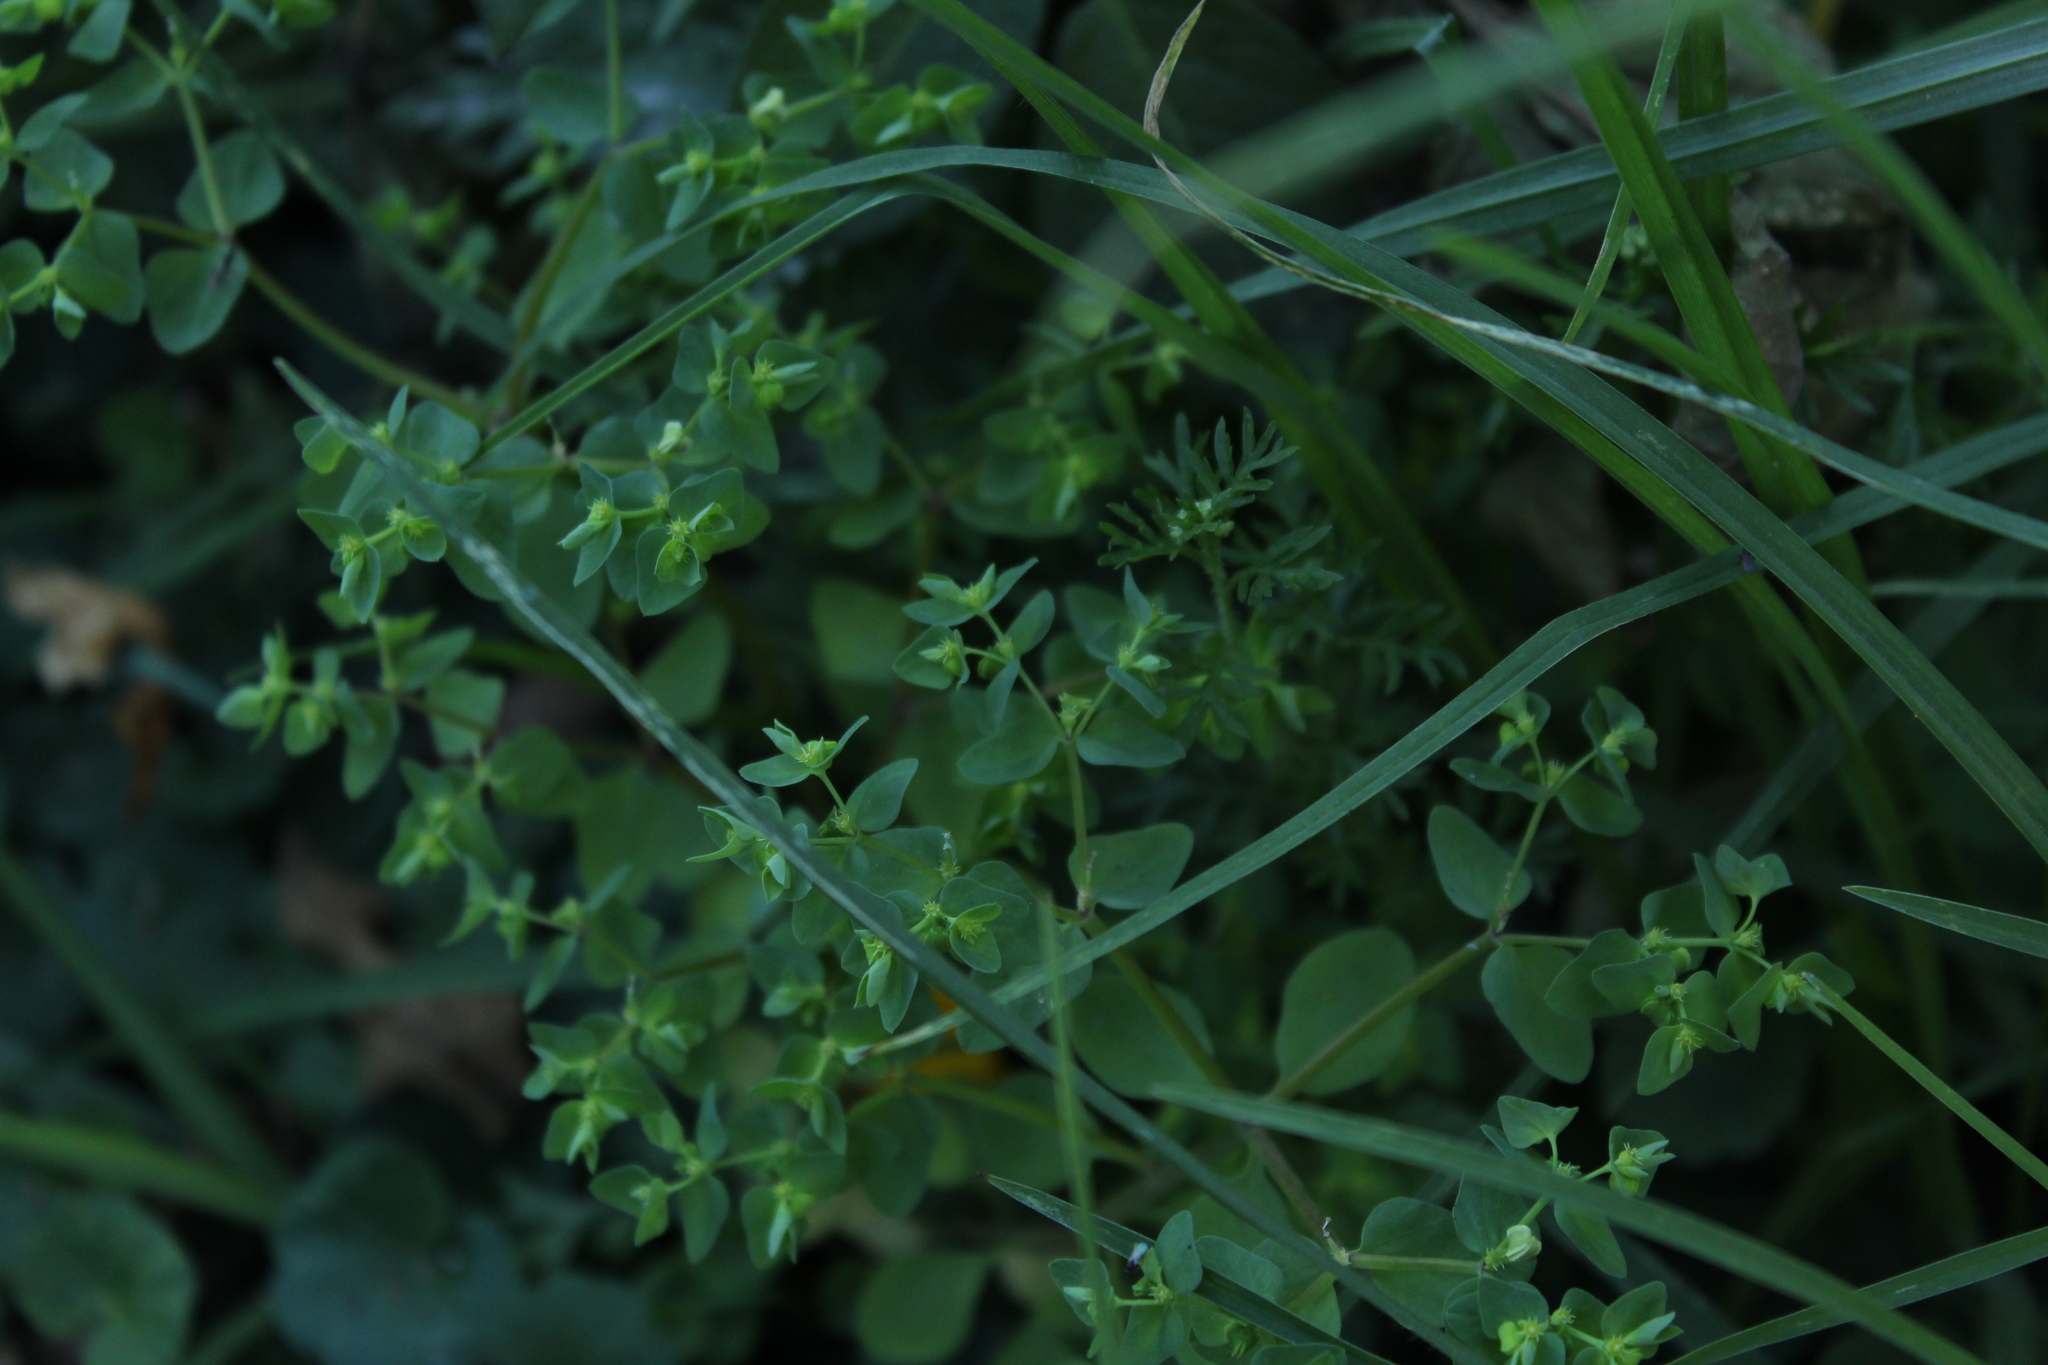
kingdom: Plantae
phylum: Tracheophyta
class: Magnoliopsida
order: Malpighiales
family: Euphorbiaceae
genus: Euphorbia
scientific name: Euphorbia peplus
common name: Petty spurge
